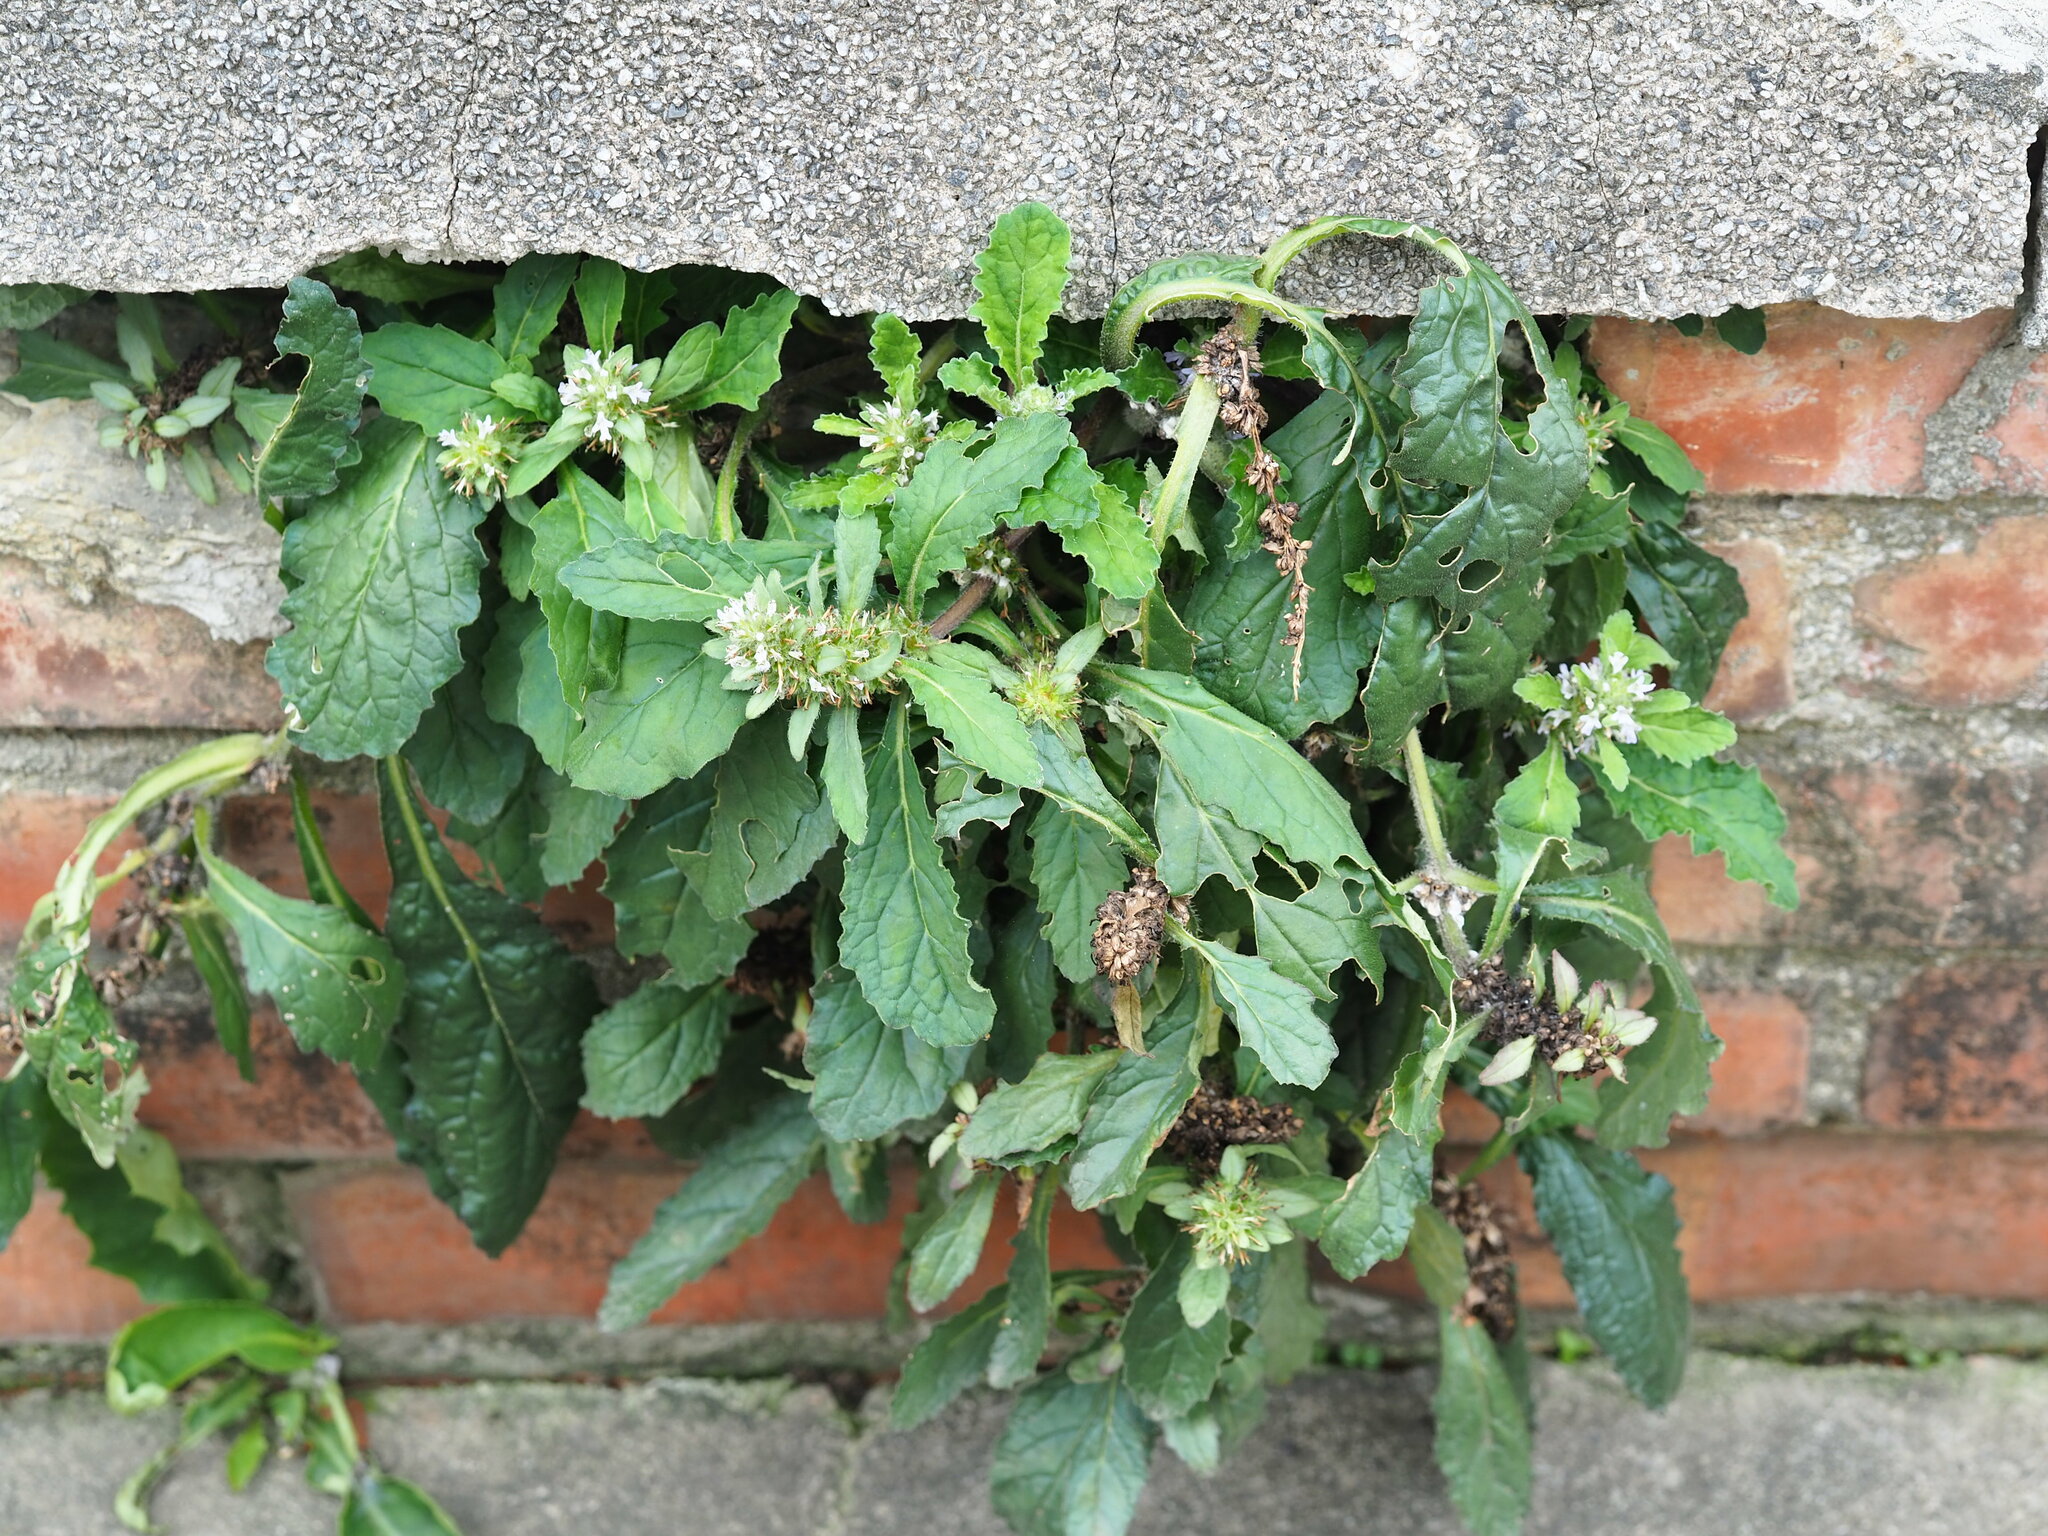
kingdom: Plantae
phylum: Tracheophyta
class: Magnoliopsida
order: Lamiales
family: Lamiaceae
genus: Ajuga
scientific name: Ajuga taiwanensis
